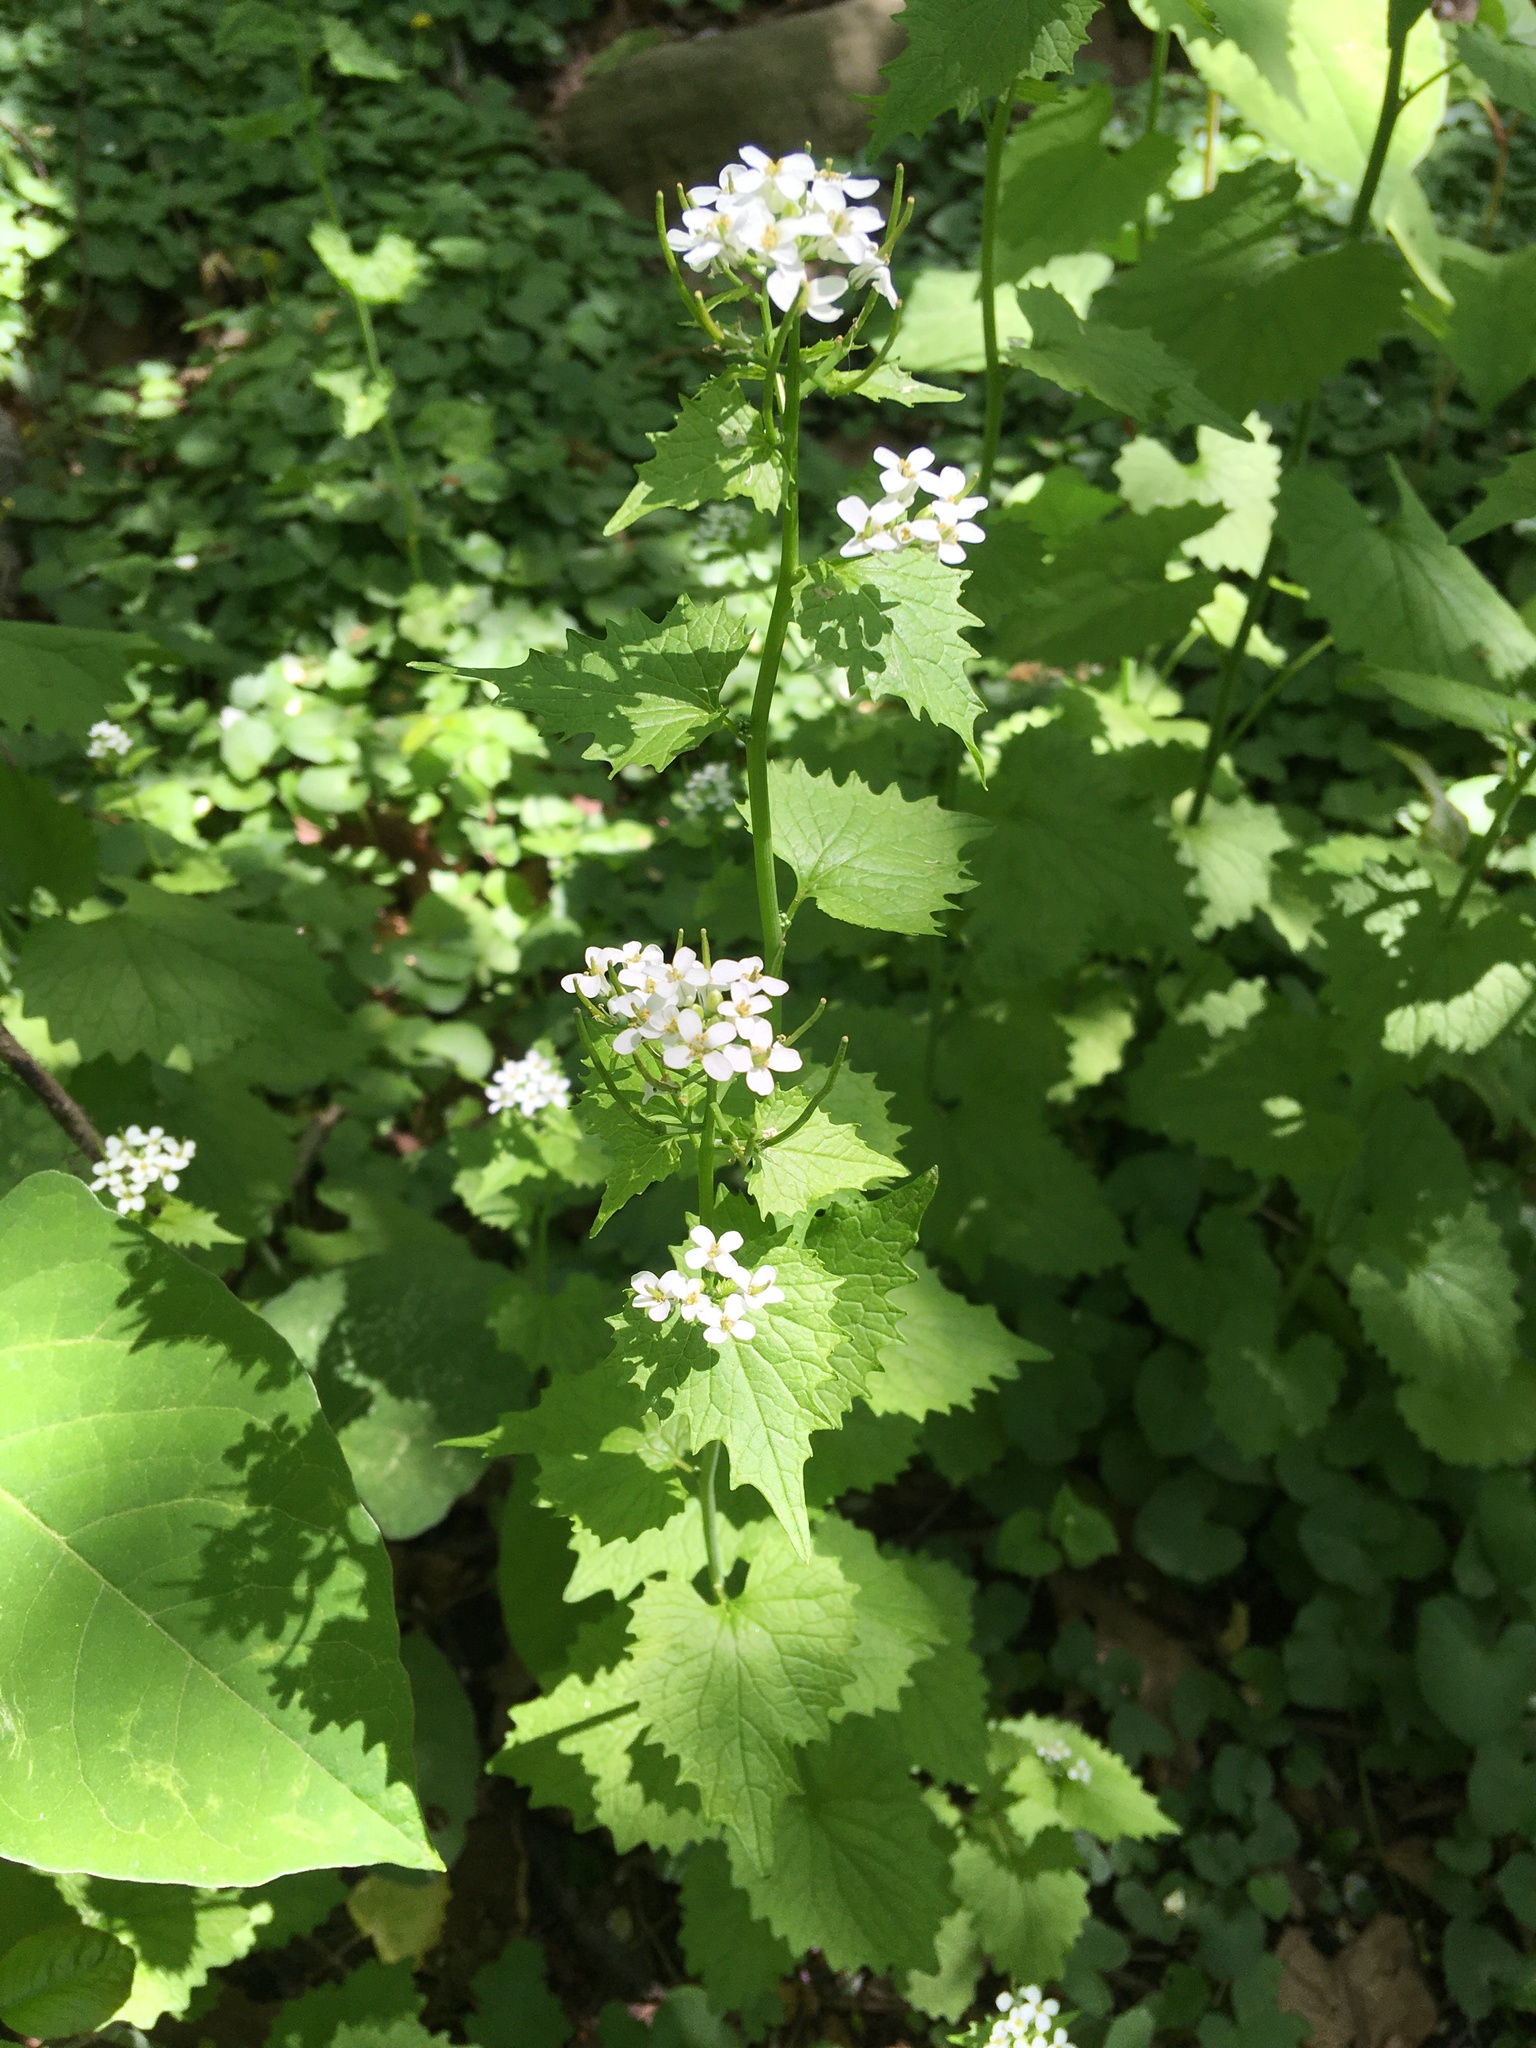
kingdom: Plantae
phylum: Tracheophyta
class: Magnoliopsida
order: Brassicales
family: Brassicaceae
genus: Alliaria
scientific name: Alliaria petiolata
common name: Garlic mustard
